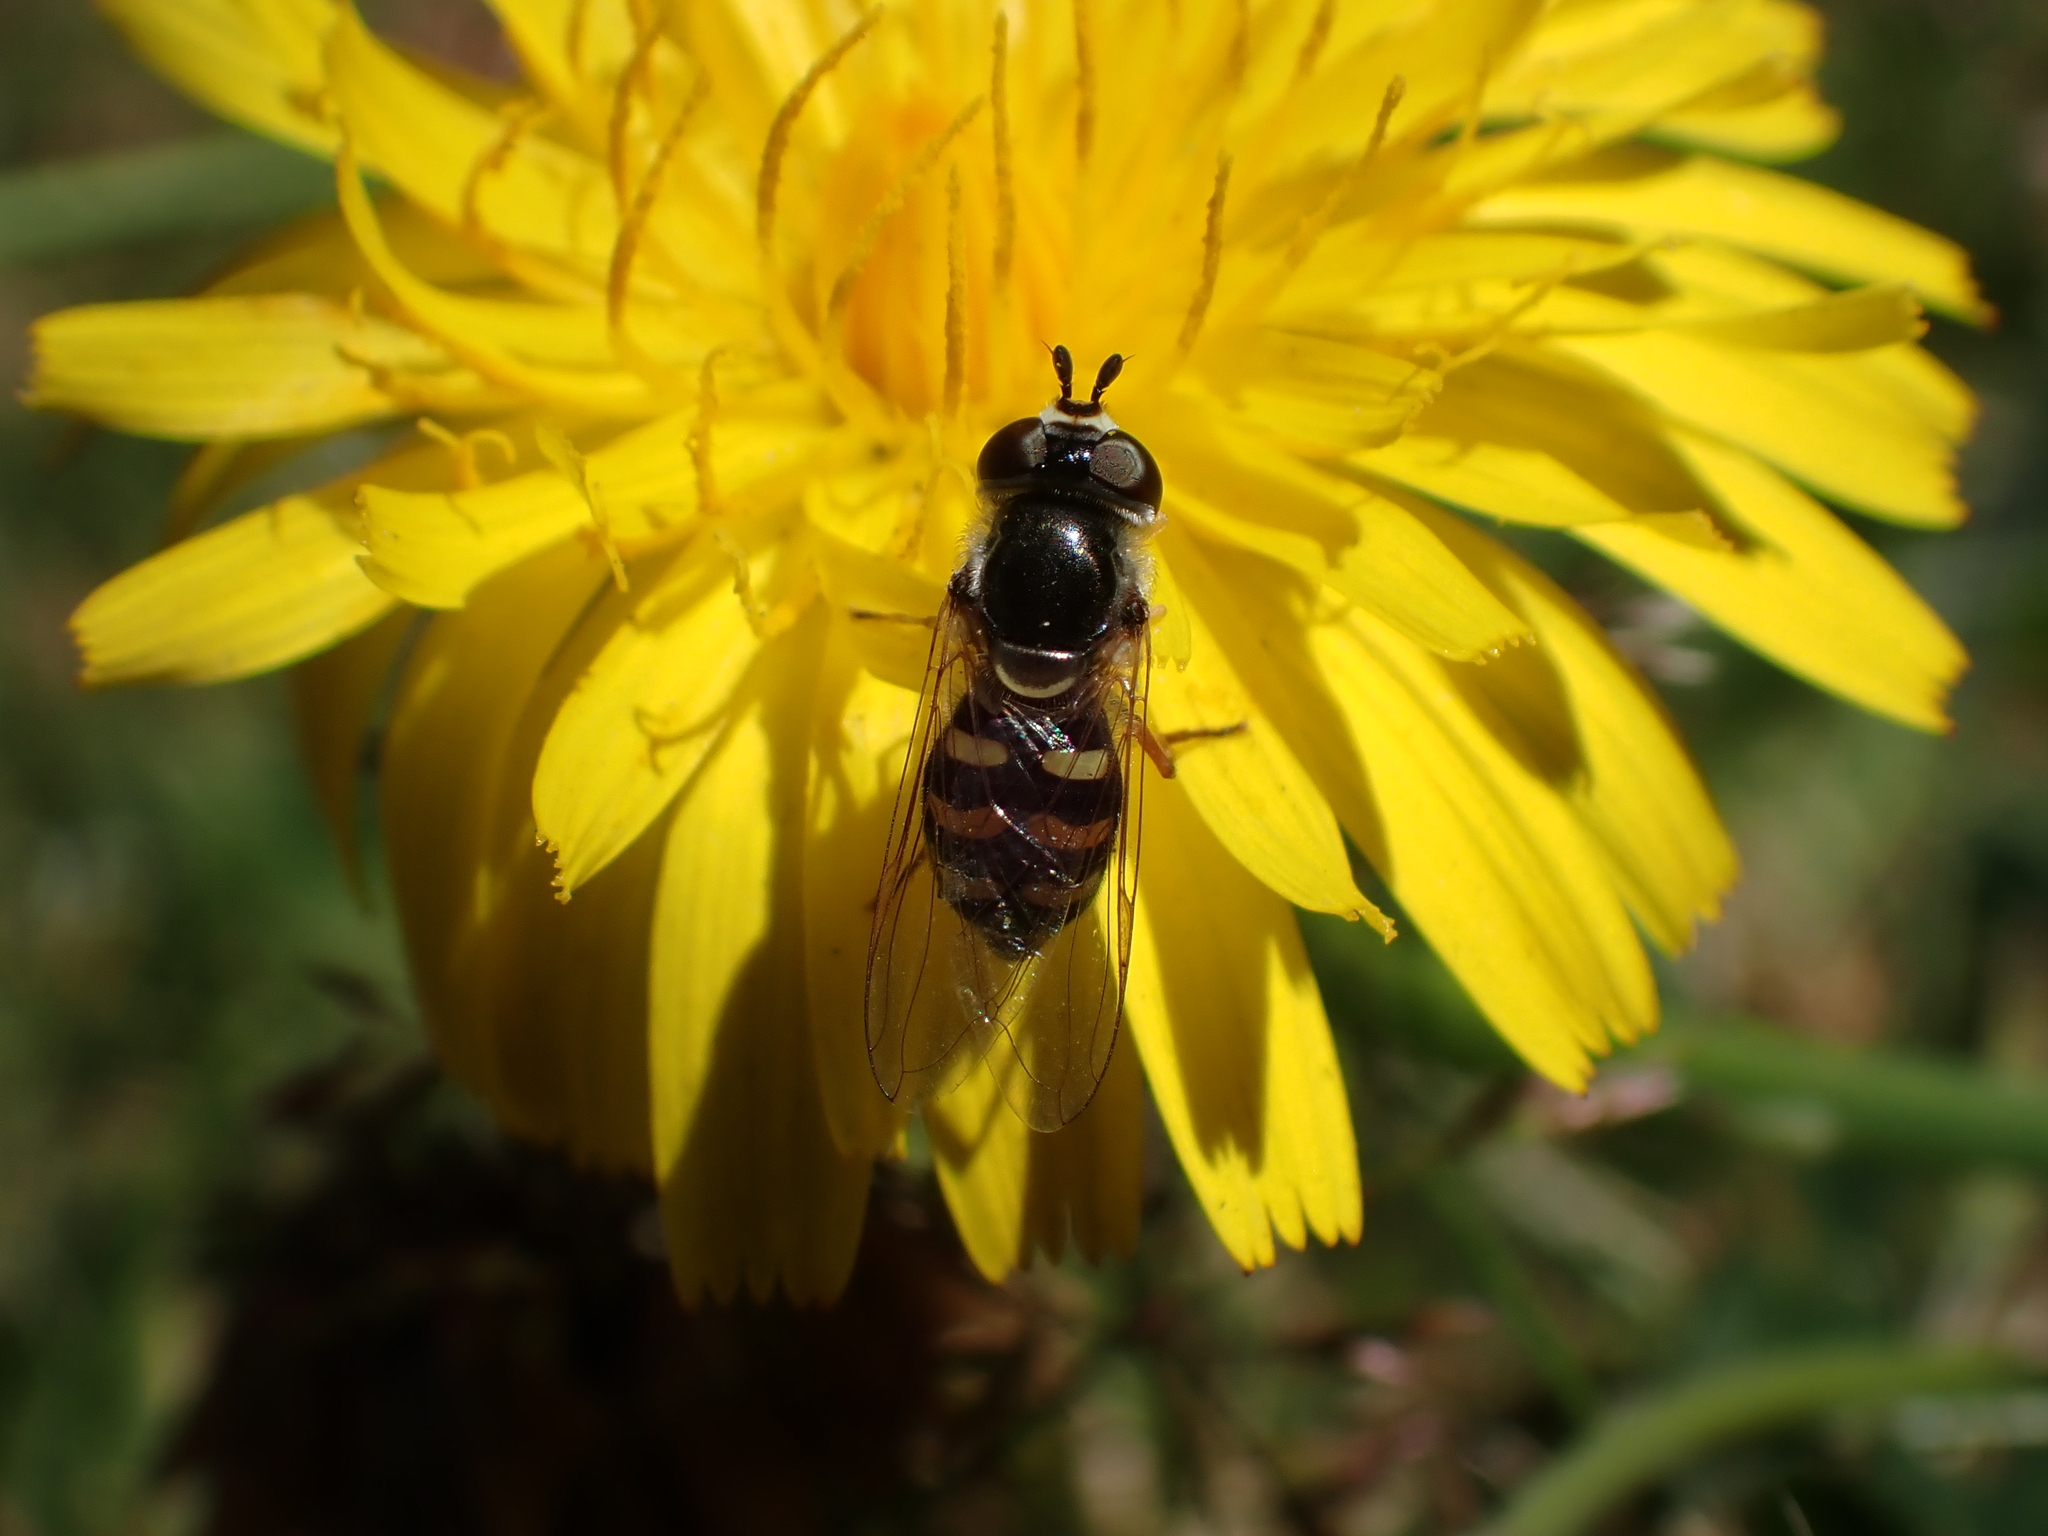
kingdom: Animalia
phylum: Arthropoda
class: Insecta
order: Diptera
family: Syrphidae
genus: Eupeodes
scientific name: Eupeodes volucris
